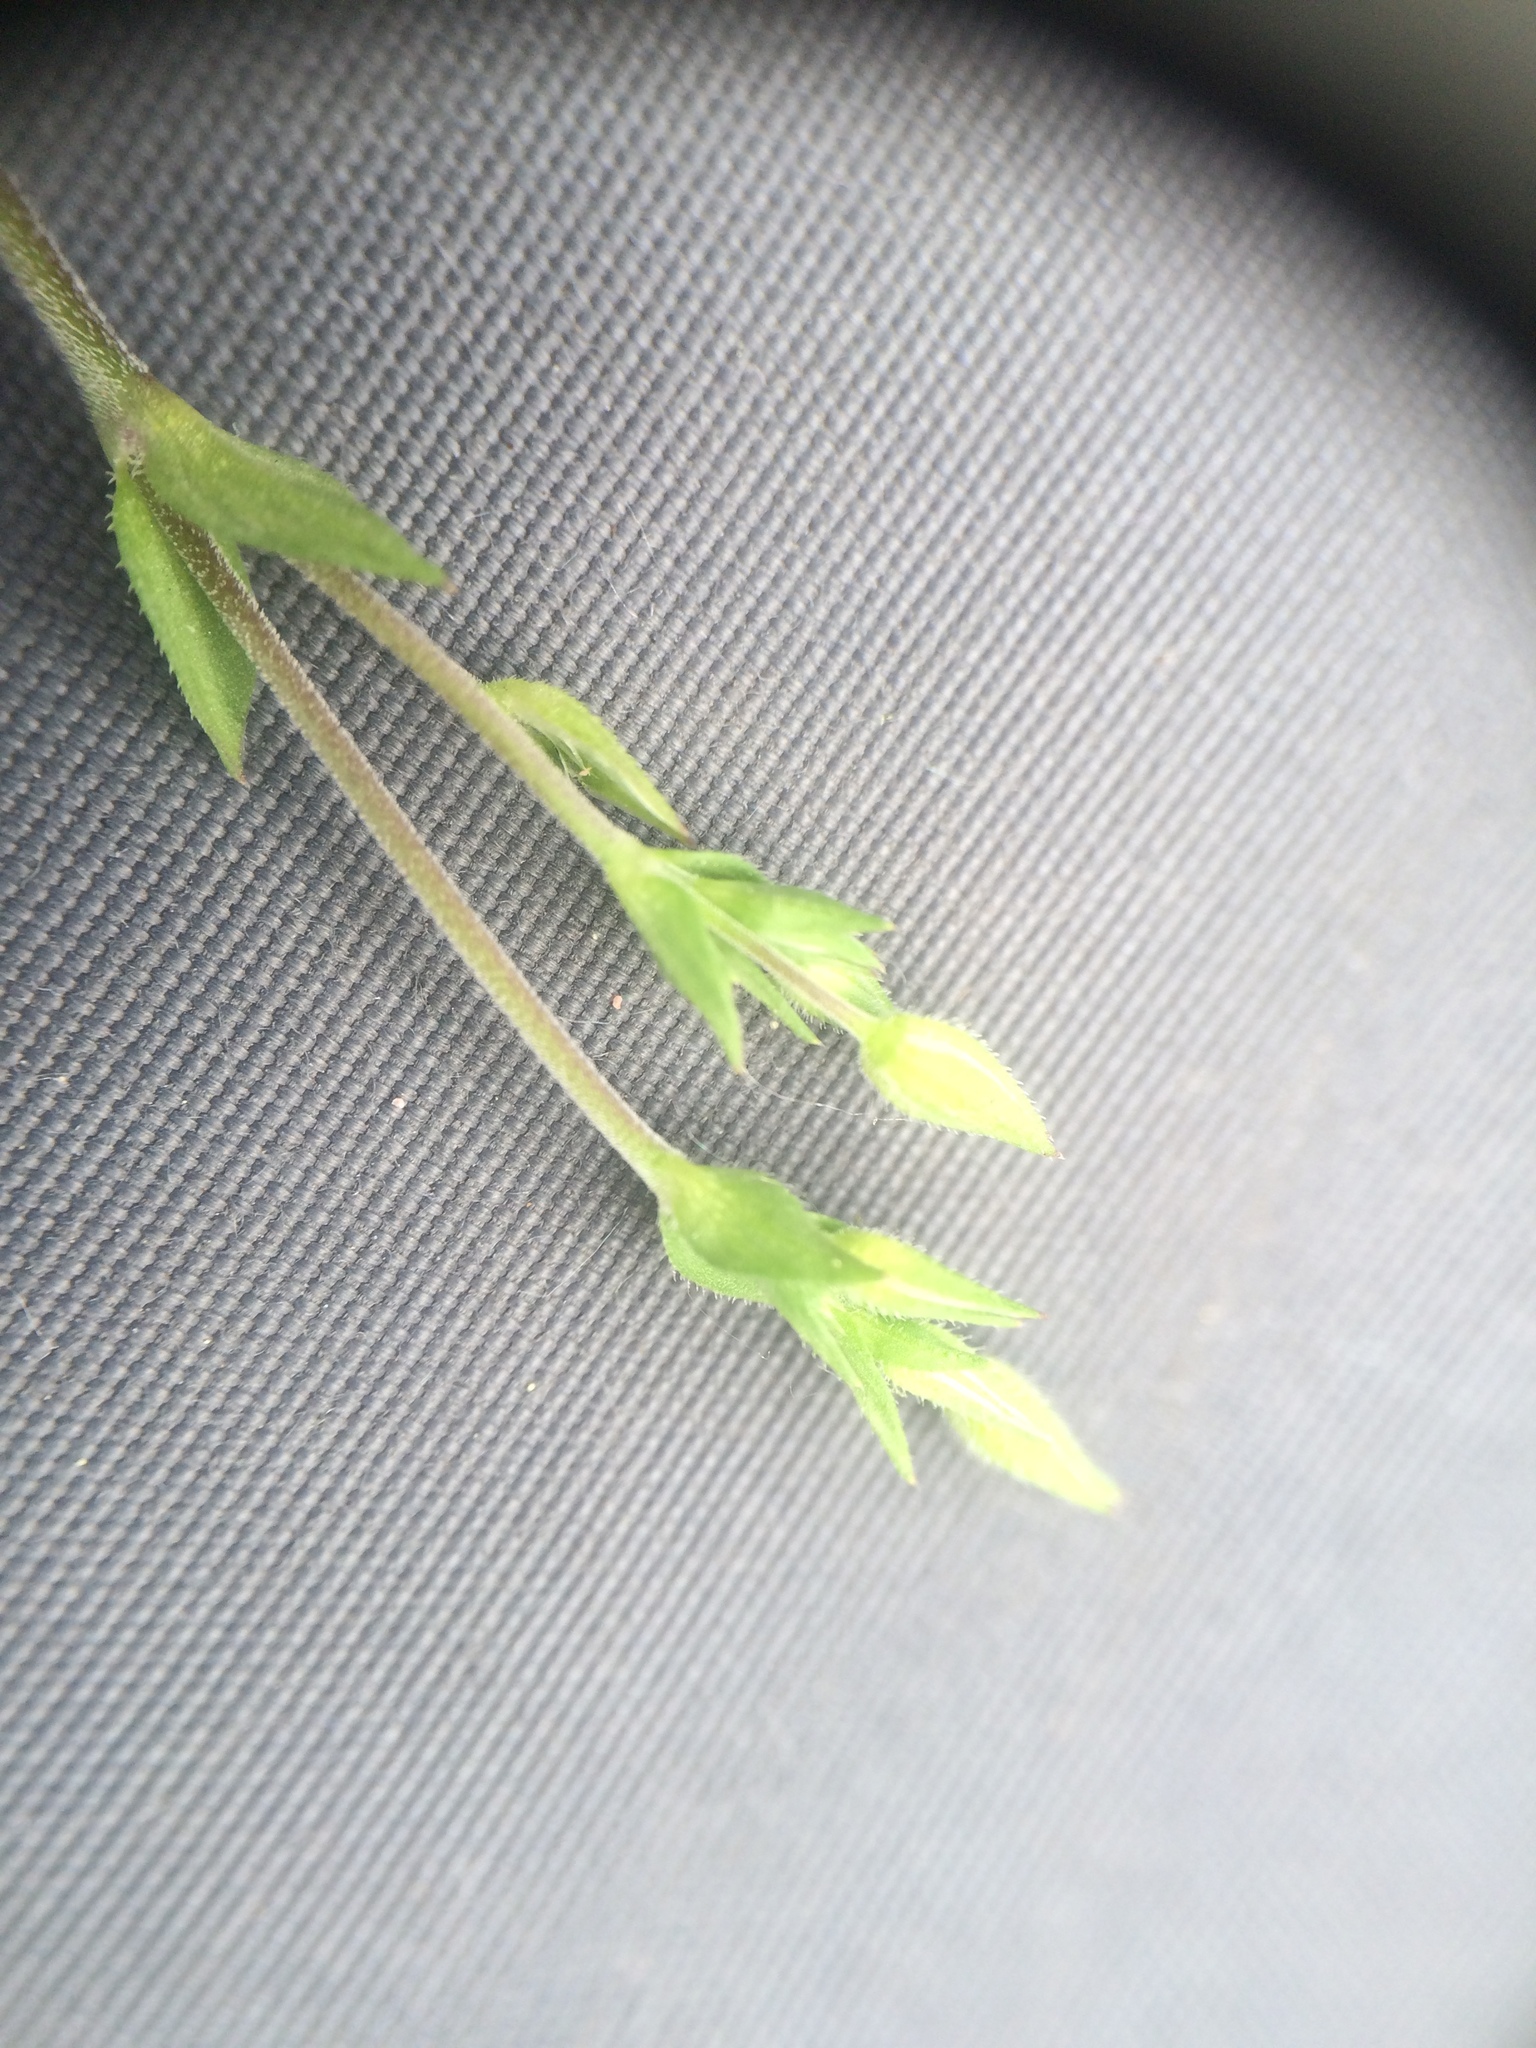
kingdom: Plantae
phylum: Tracheophyta
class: Magnoliopsida
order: Caryophyllales
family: Caryophyllaceae
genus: Arenaria
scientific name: Arenaria serpyllifolia
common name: Thyme-leaved sandwort
